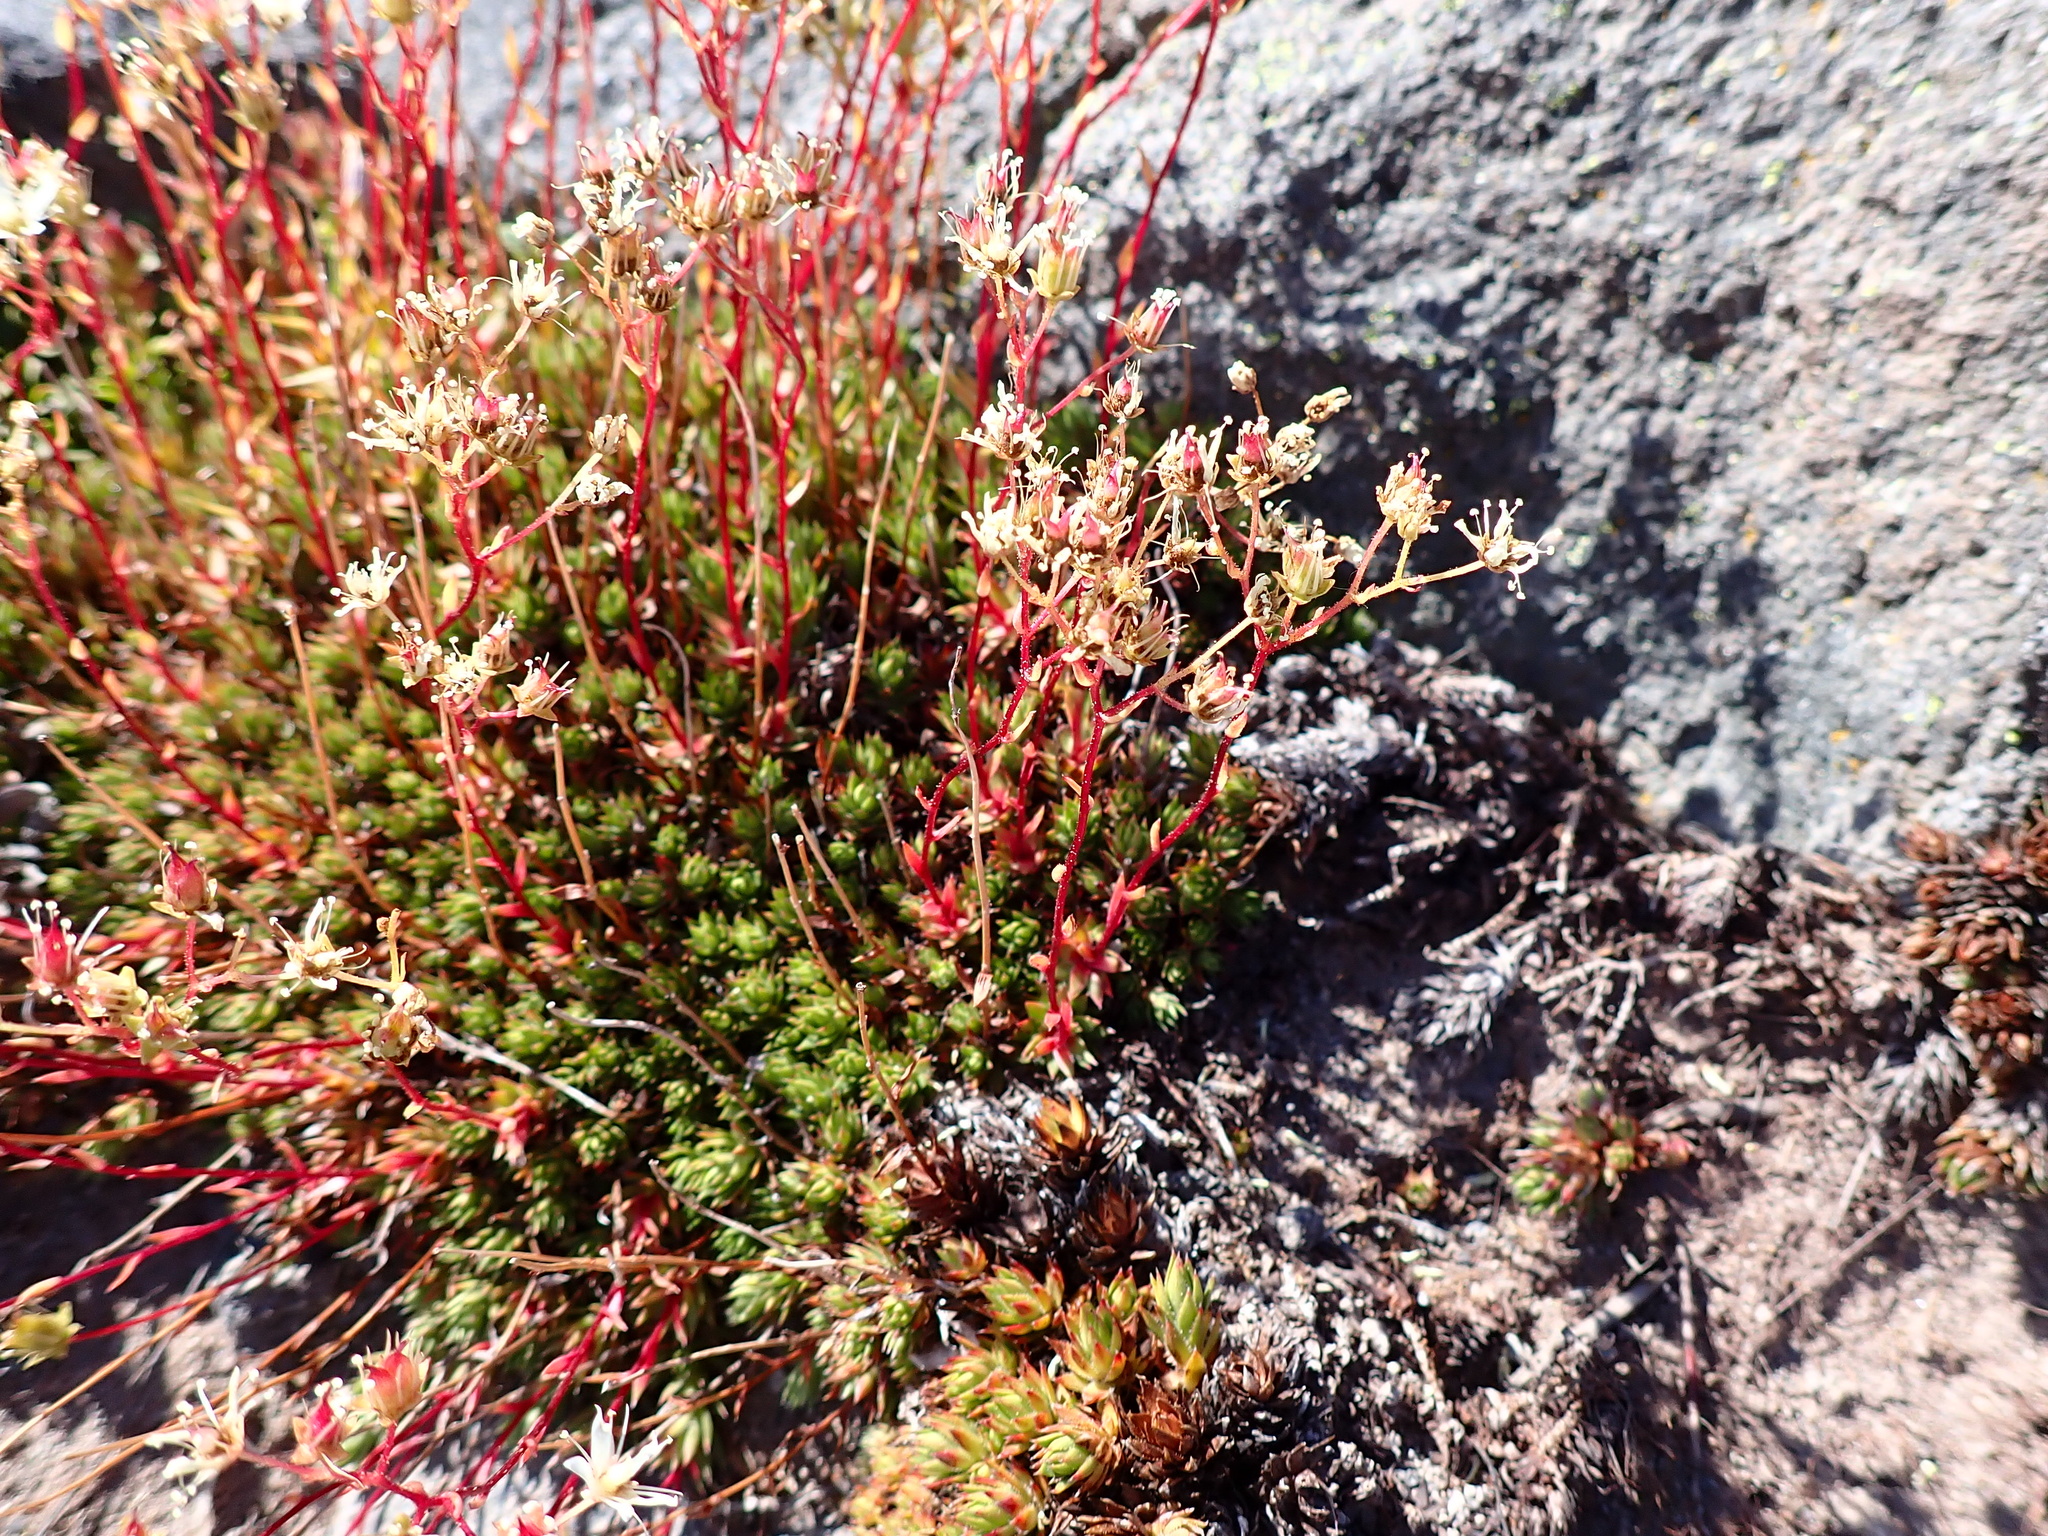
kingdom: Plantae
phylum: Tracheophyta
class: Magnoliopsida
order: Saxifragales
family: Saxifragaceae
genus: Saxifraga
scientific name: Saxifraga bronchialis
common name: Matted saxifrage
